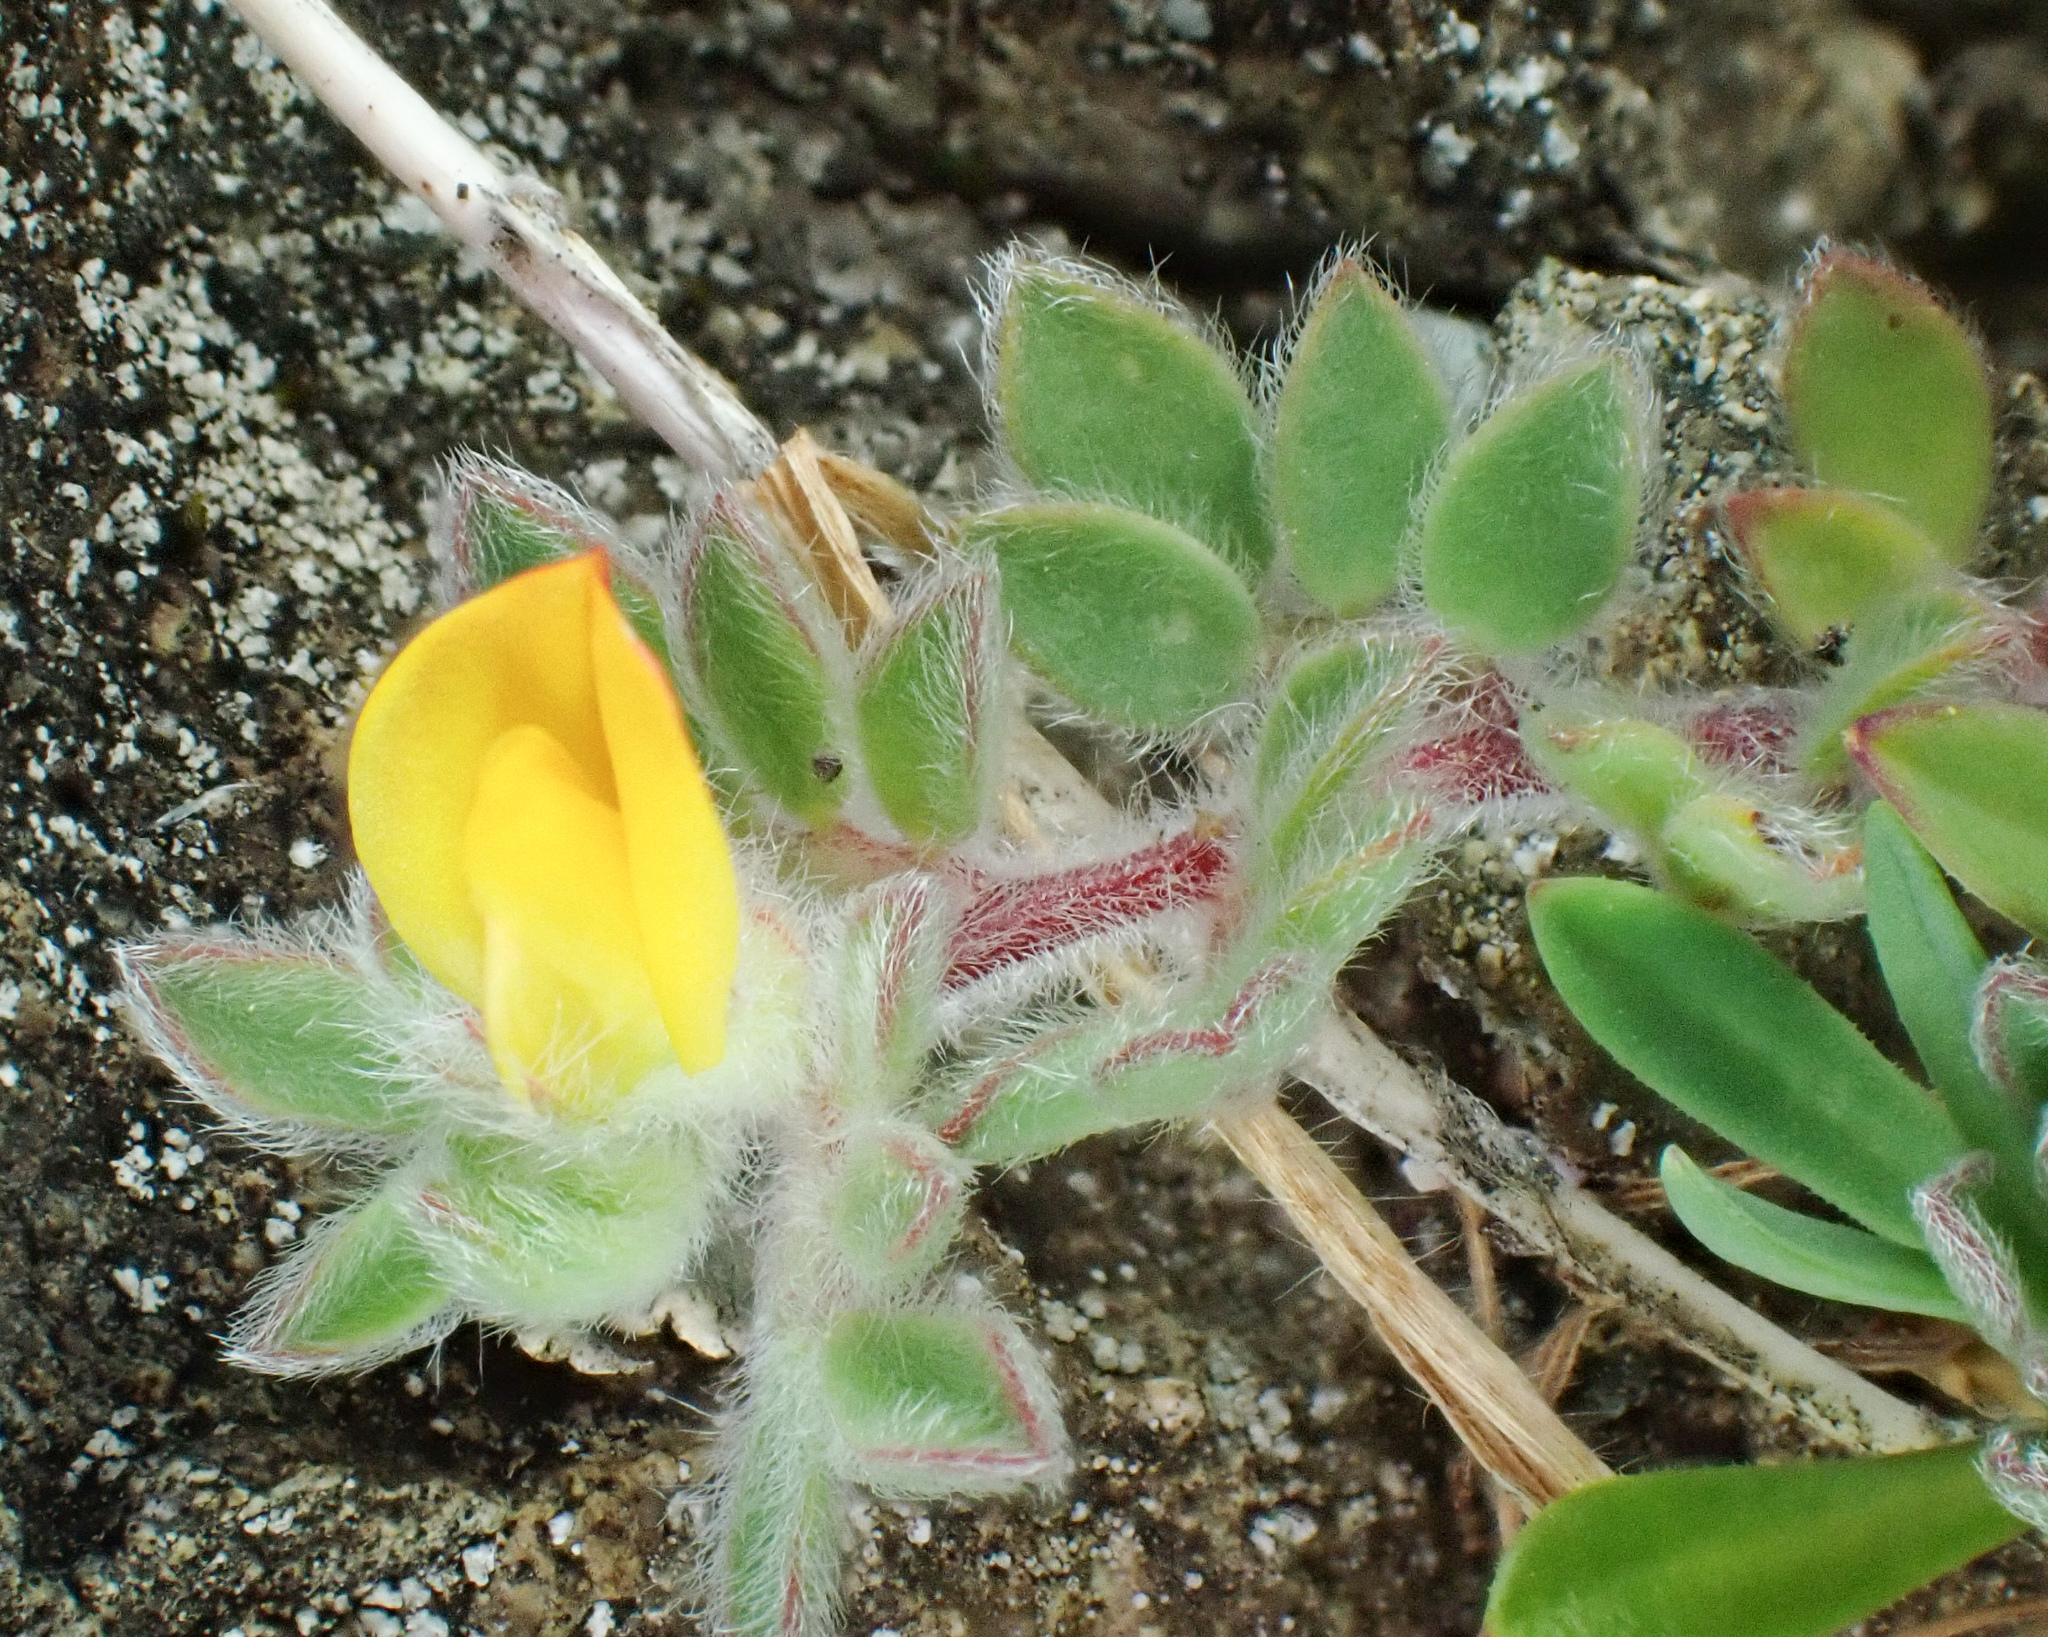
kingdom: Plantae
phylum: Tracheophyta
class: Magnoliopsida
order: Fabales
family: Fabaceae
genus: Acmispon
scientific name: Acmispon brachycarpus
